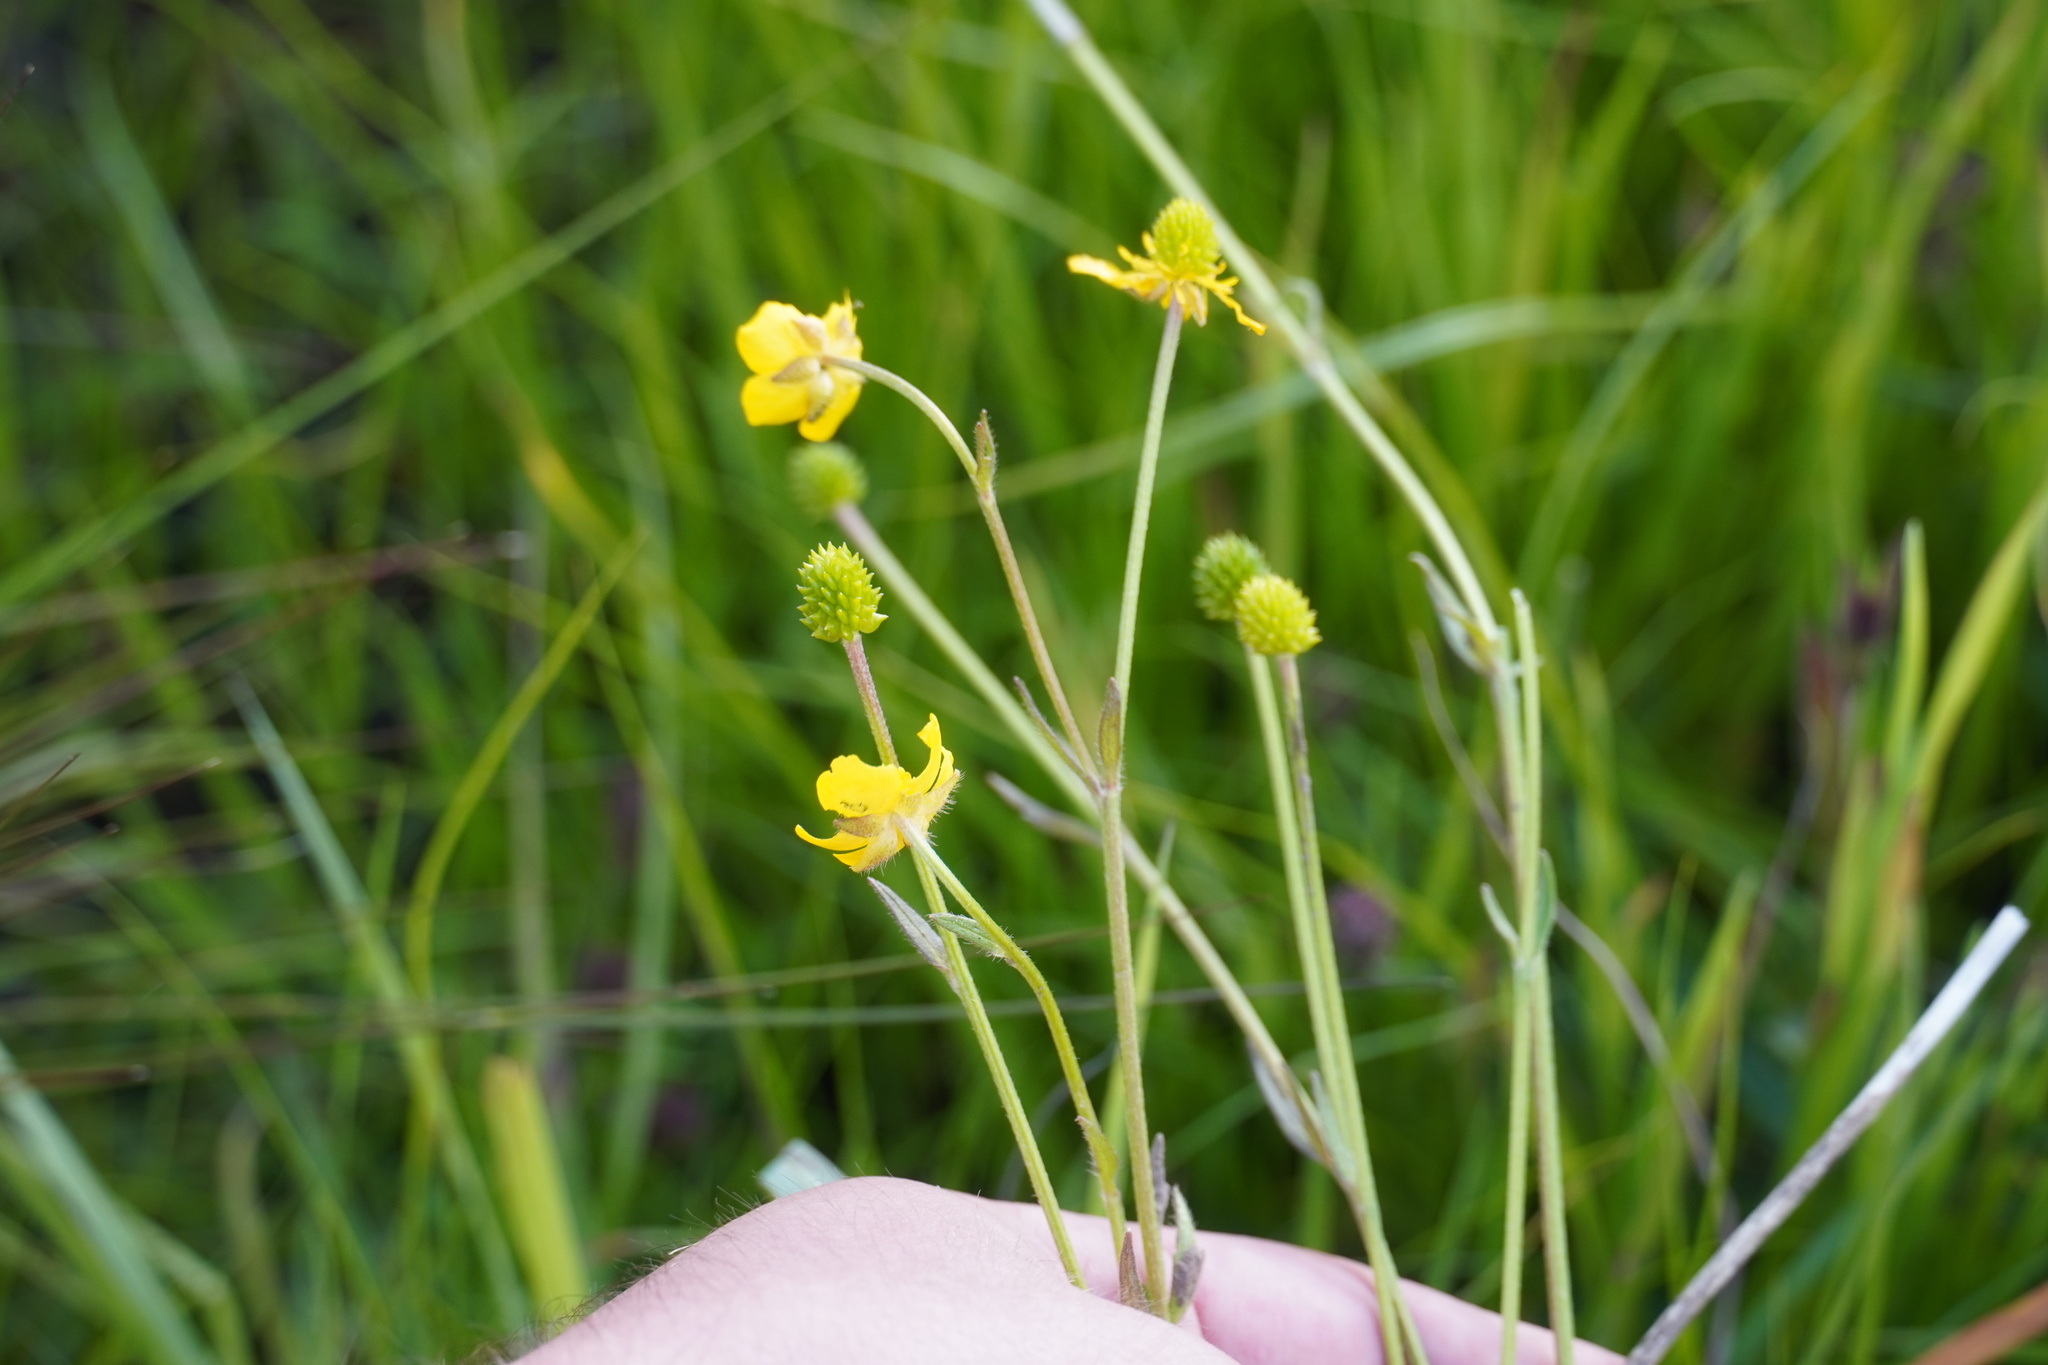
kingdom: Plantae
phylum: Tracheophyta
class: Magnoliopsida
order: Ranunculales
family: Ranunculaceae
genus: Ranunculus
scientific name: Ranunculus multifidus
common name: Wild buttercup
